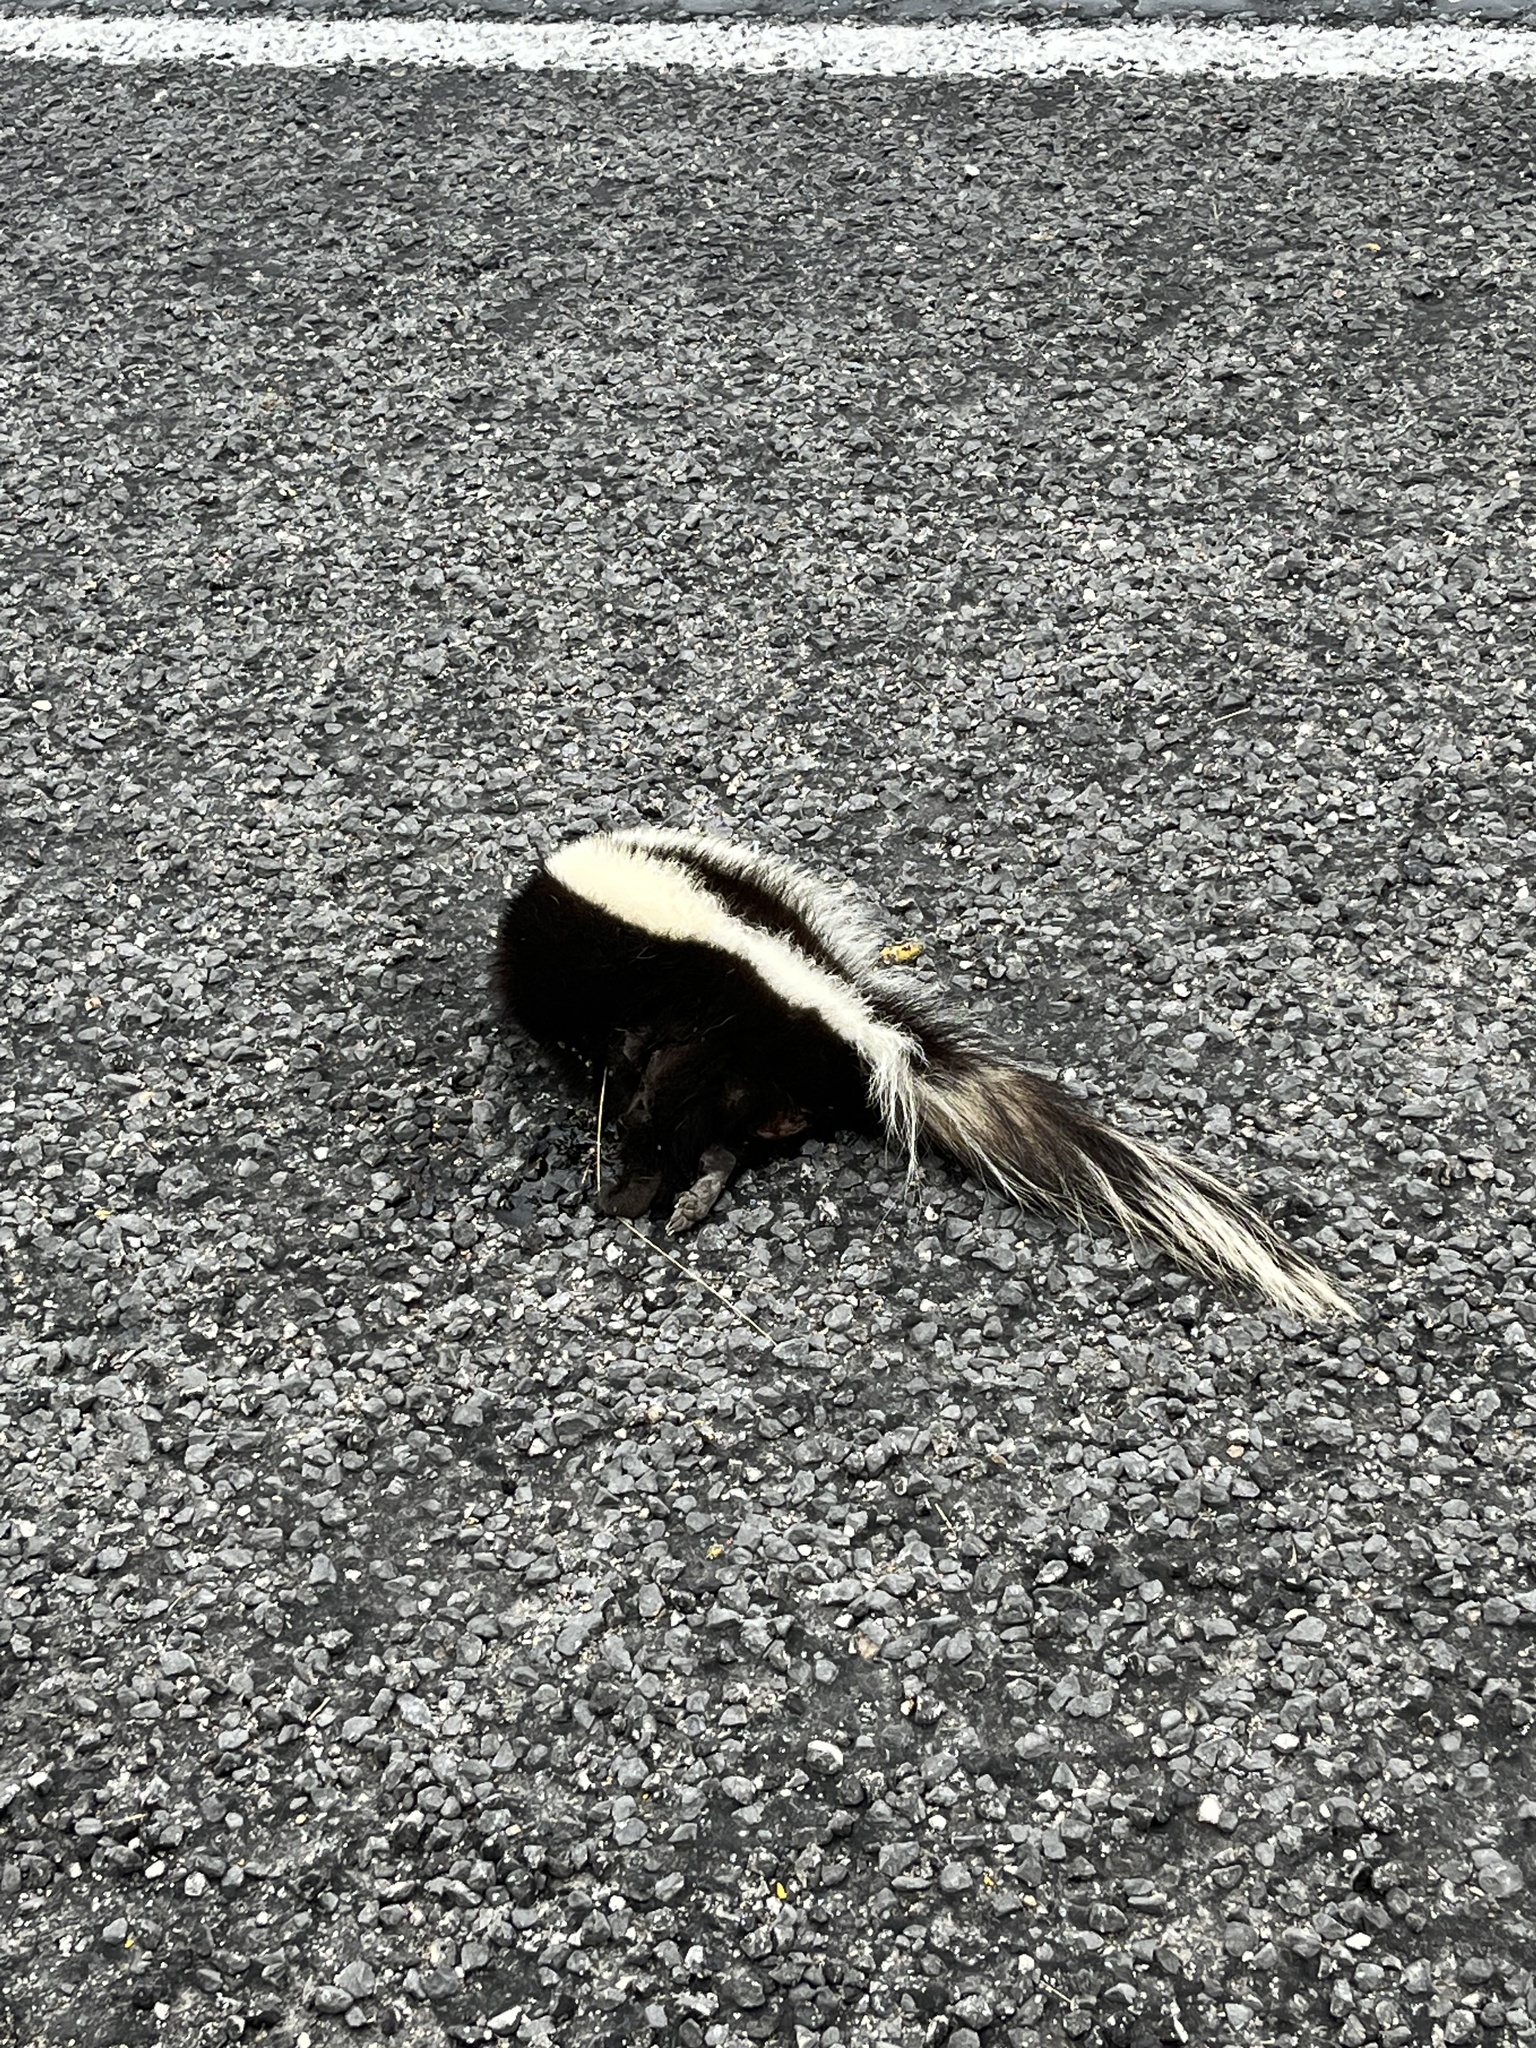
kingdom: Animalia
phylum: Chordata
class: Mammalia
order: Carnivora
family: Mephitidae
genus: Mephitis
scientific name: Mephitis mephitis
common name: Striped skunk
